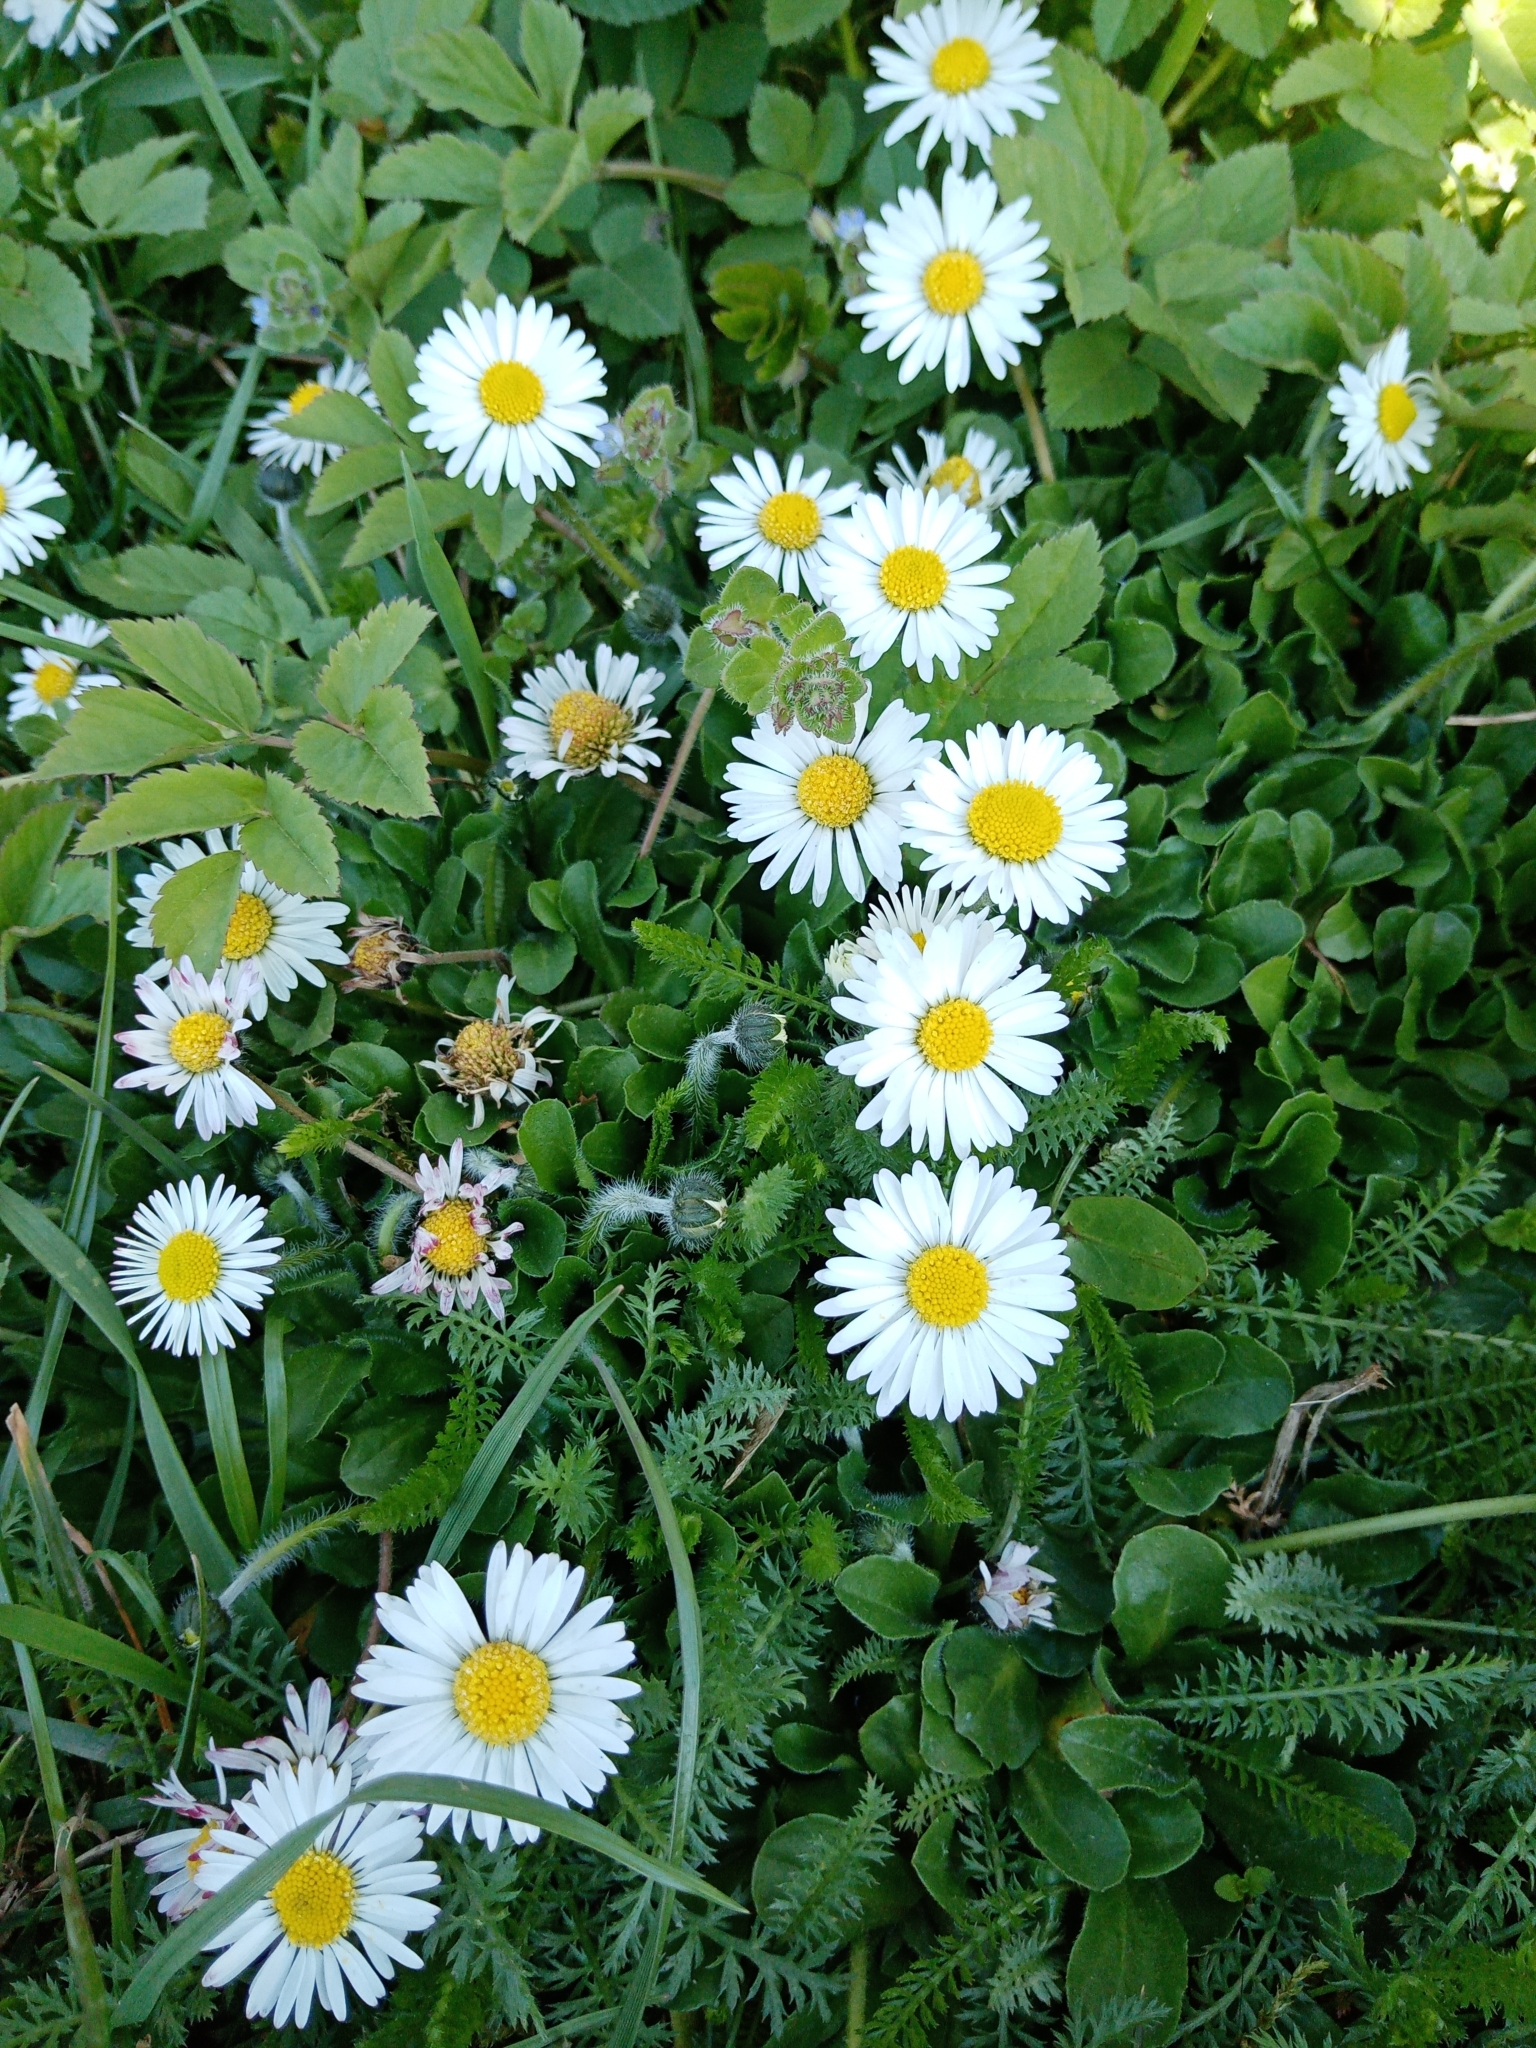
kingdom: Plantae
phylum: Tracheophyta
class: Magnoliopsida
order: Asterales
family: Asteraceae
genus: Bellis
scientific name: Bellis perennis
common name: Lawndaisy
